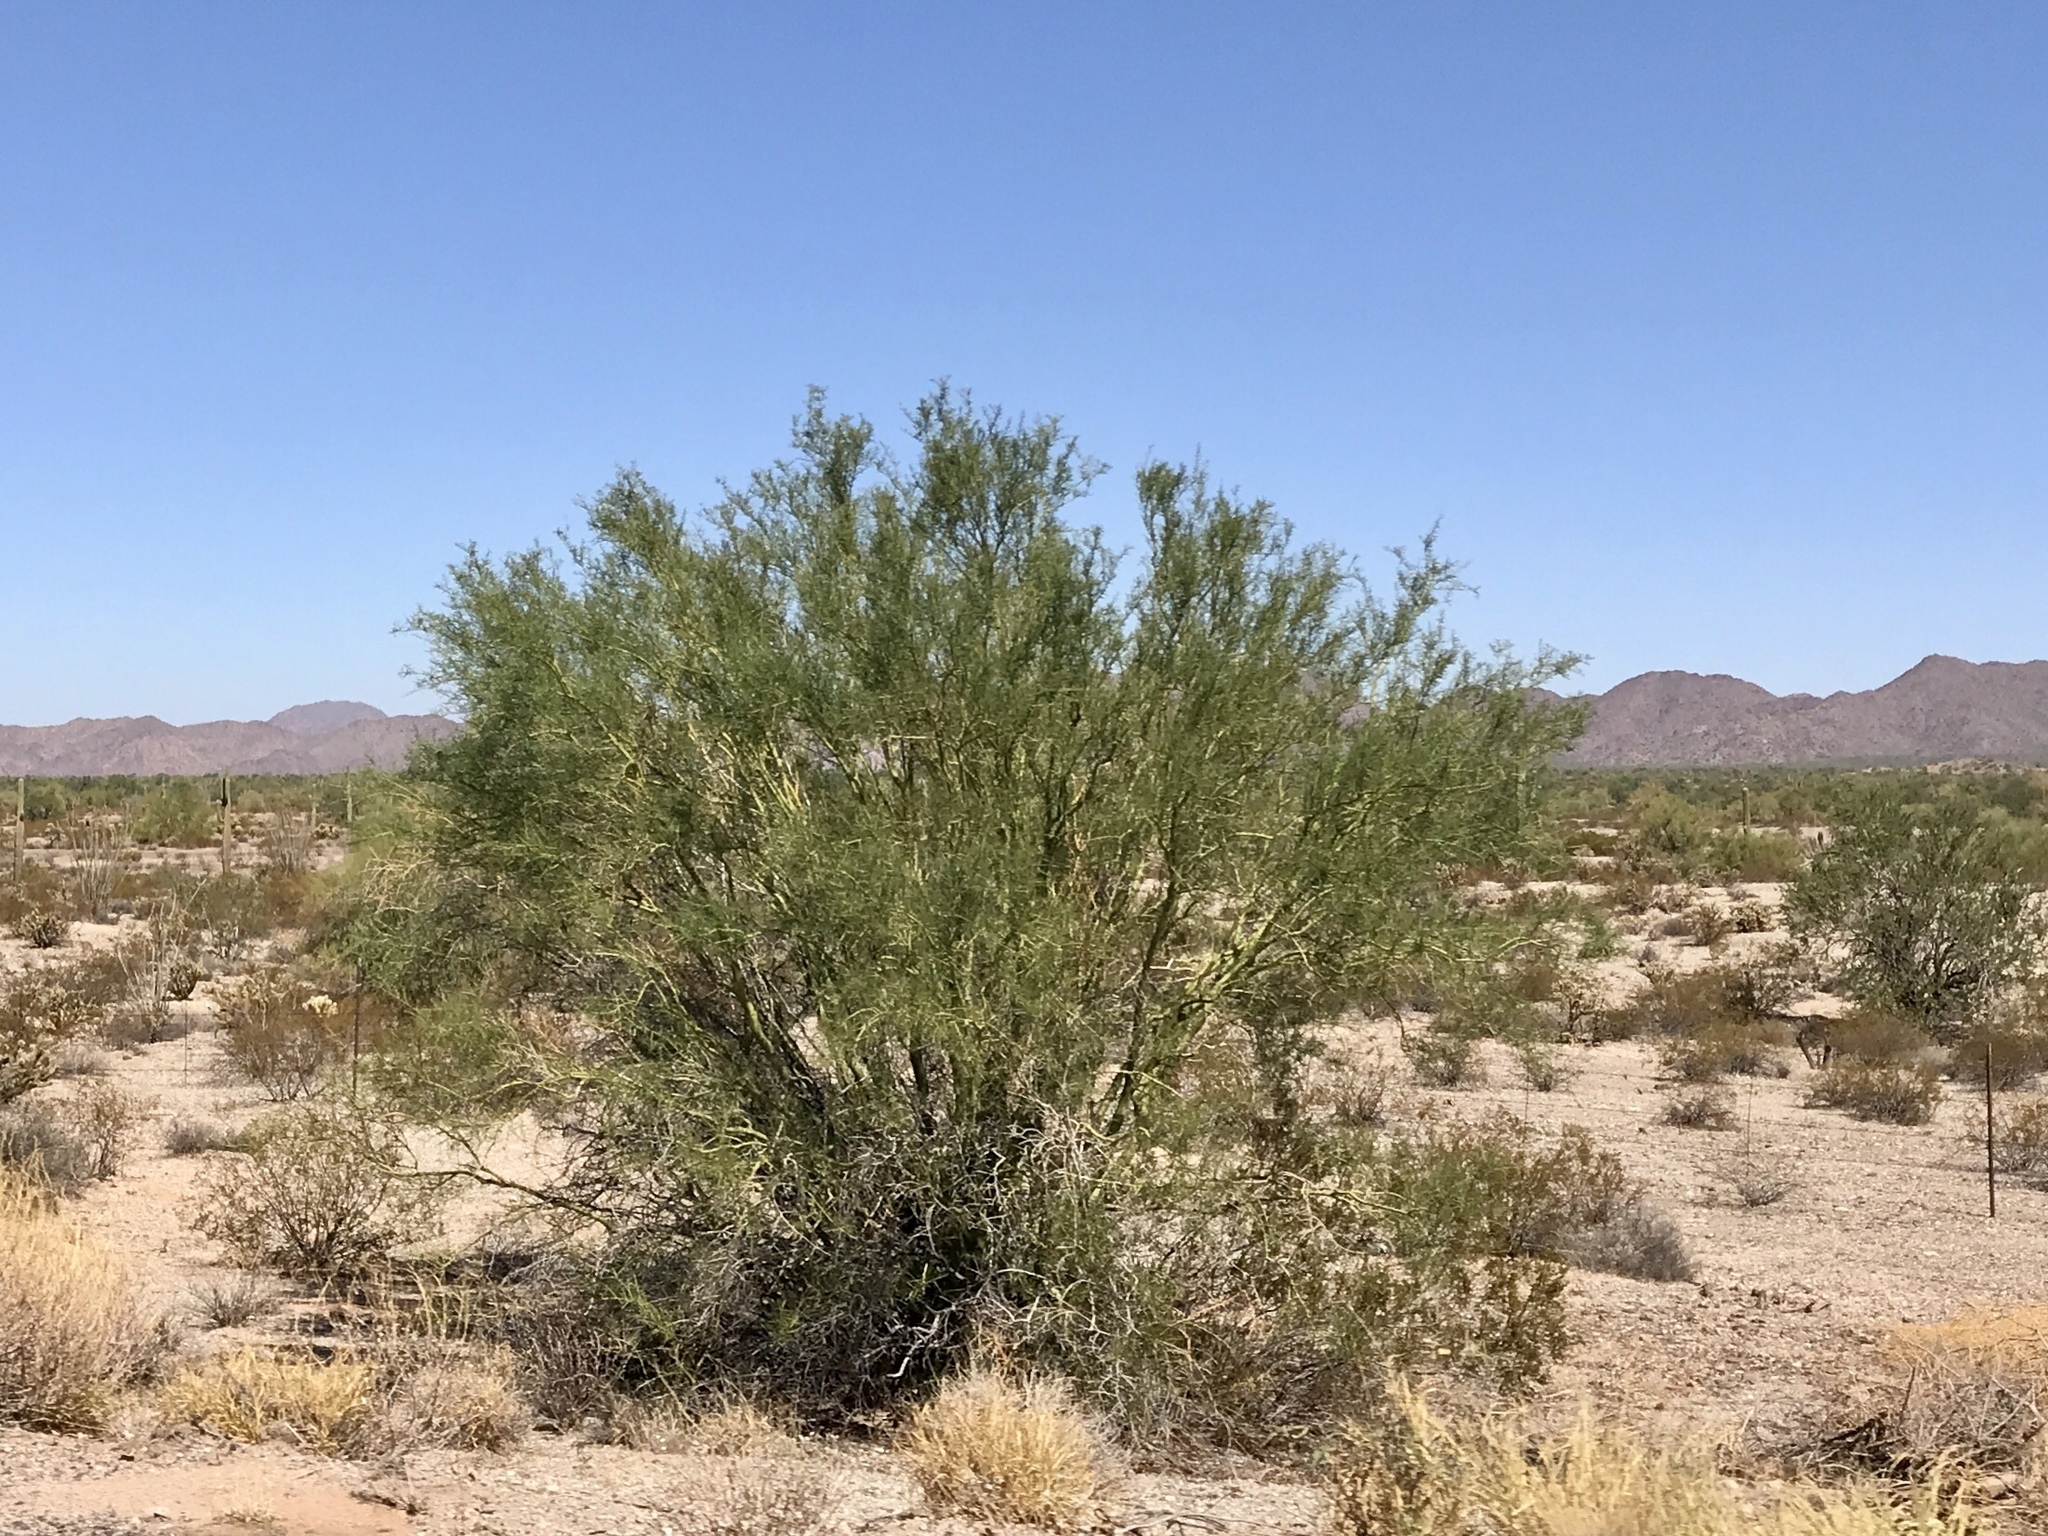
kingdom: Plantae
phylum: Tracheophyta
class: Magnoliopsida
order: Fabales
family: Fabaceae
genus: Parkinsonia
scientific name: Parkinsonia microphylla
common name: Yellow paloverde
